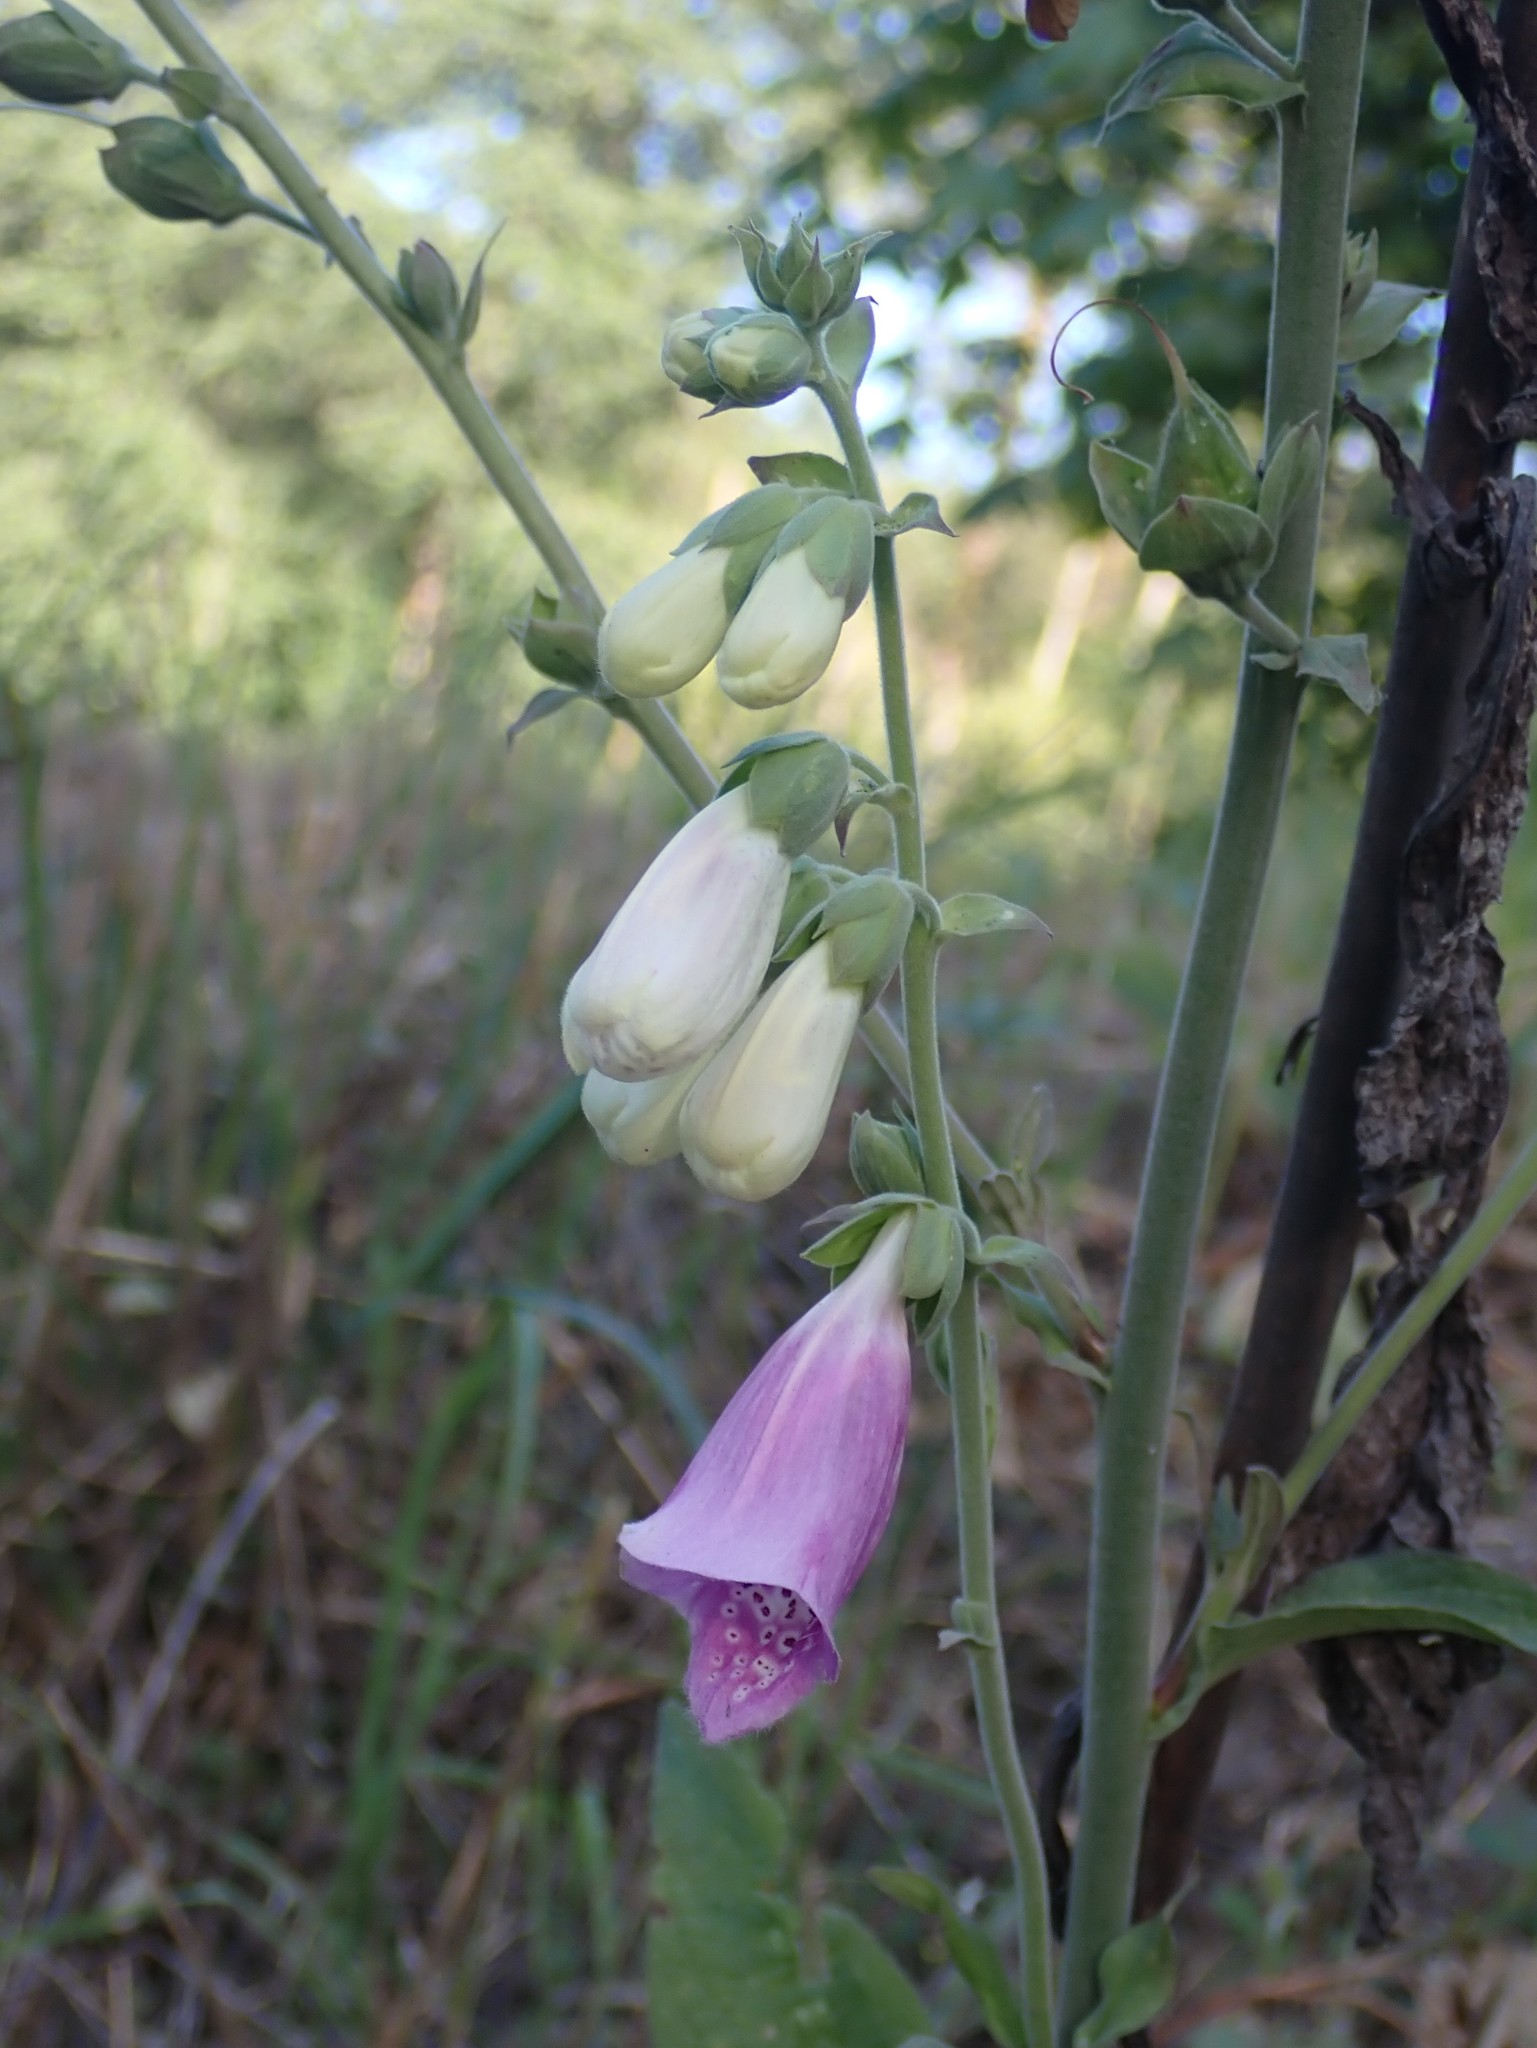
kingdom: Plantae
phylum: Tracheophyta
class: Magnoliopsida
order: Lamiales
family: Plantaginaceae
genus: Digitalis
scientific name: Digitalis purpurea
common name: Foxglove
